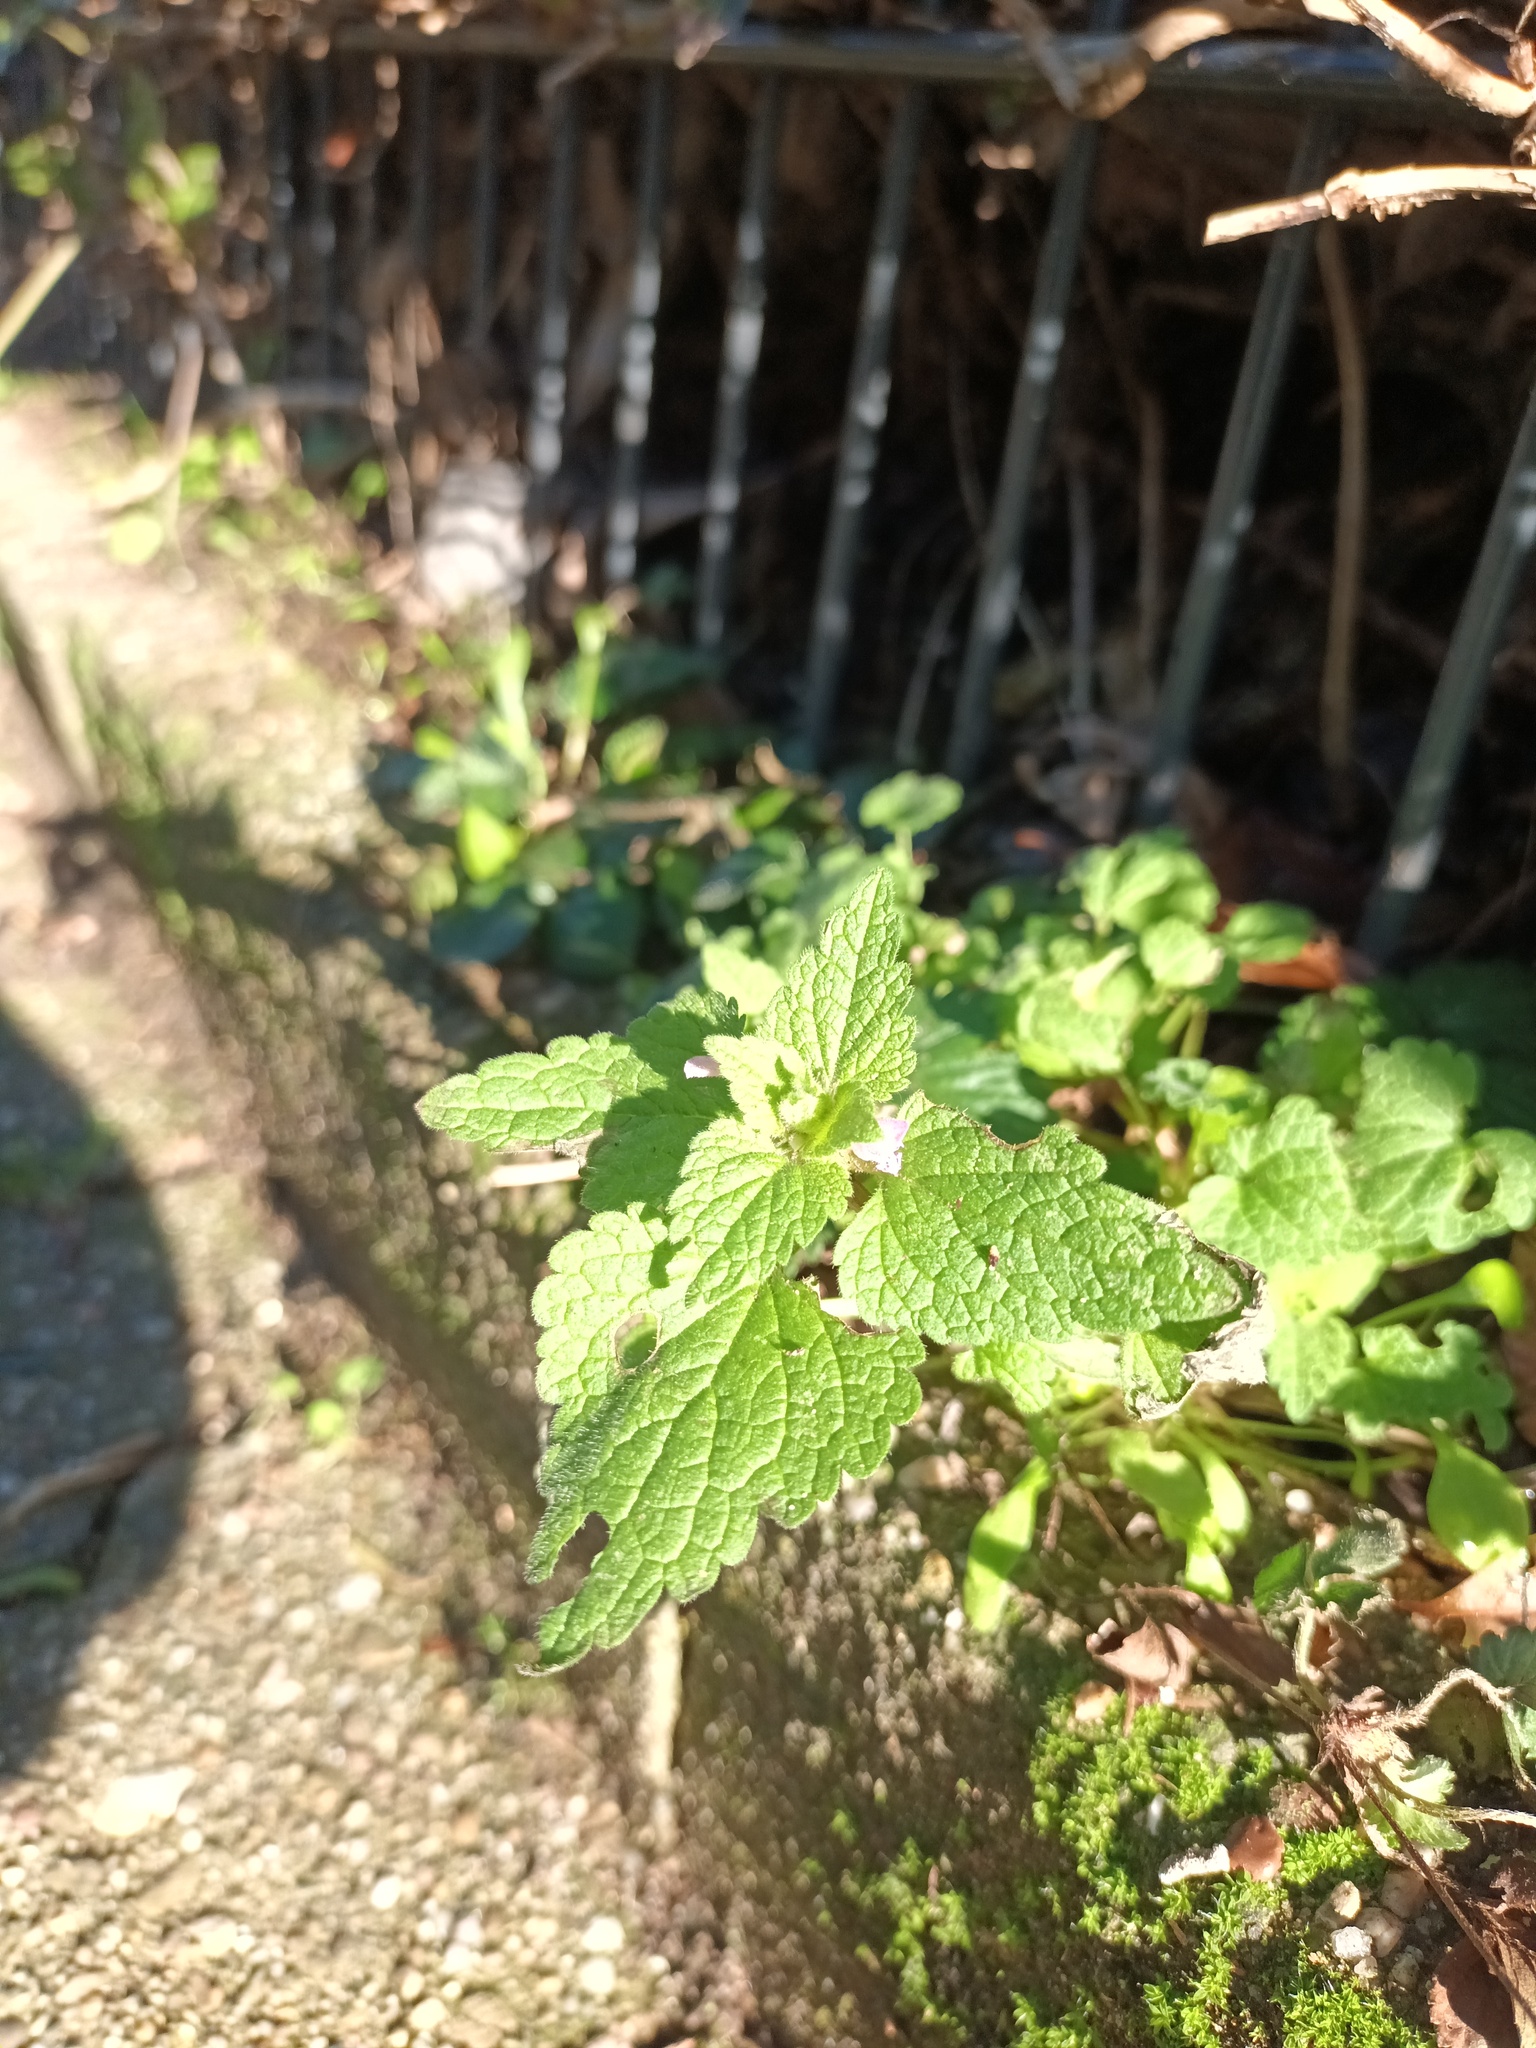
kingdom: Plantae
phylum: Tracheophyta
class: Magnoliopsida
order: Lamiales
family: Lamiaceae
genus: Lamium
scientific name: Lamium purpureum
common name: Red dead-nettle
